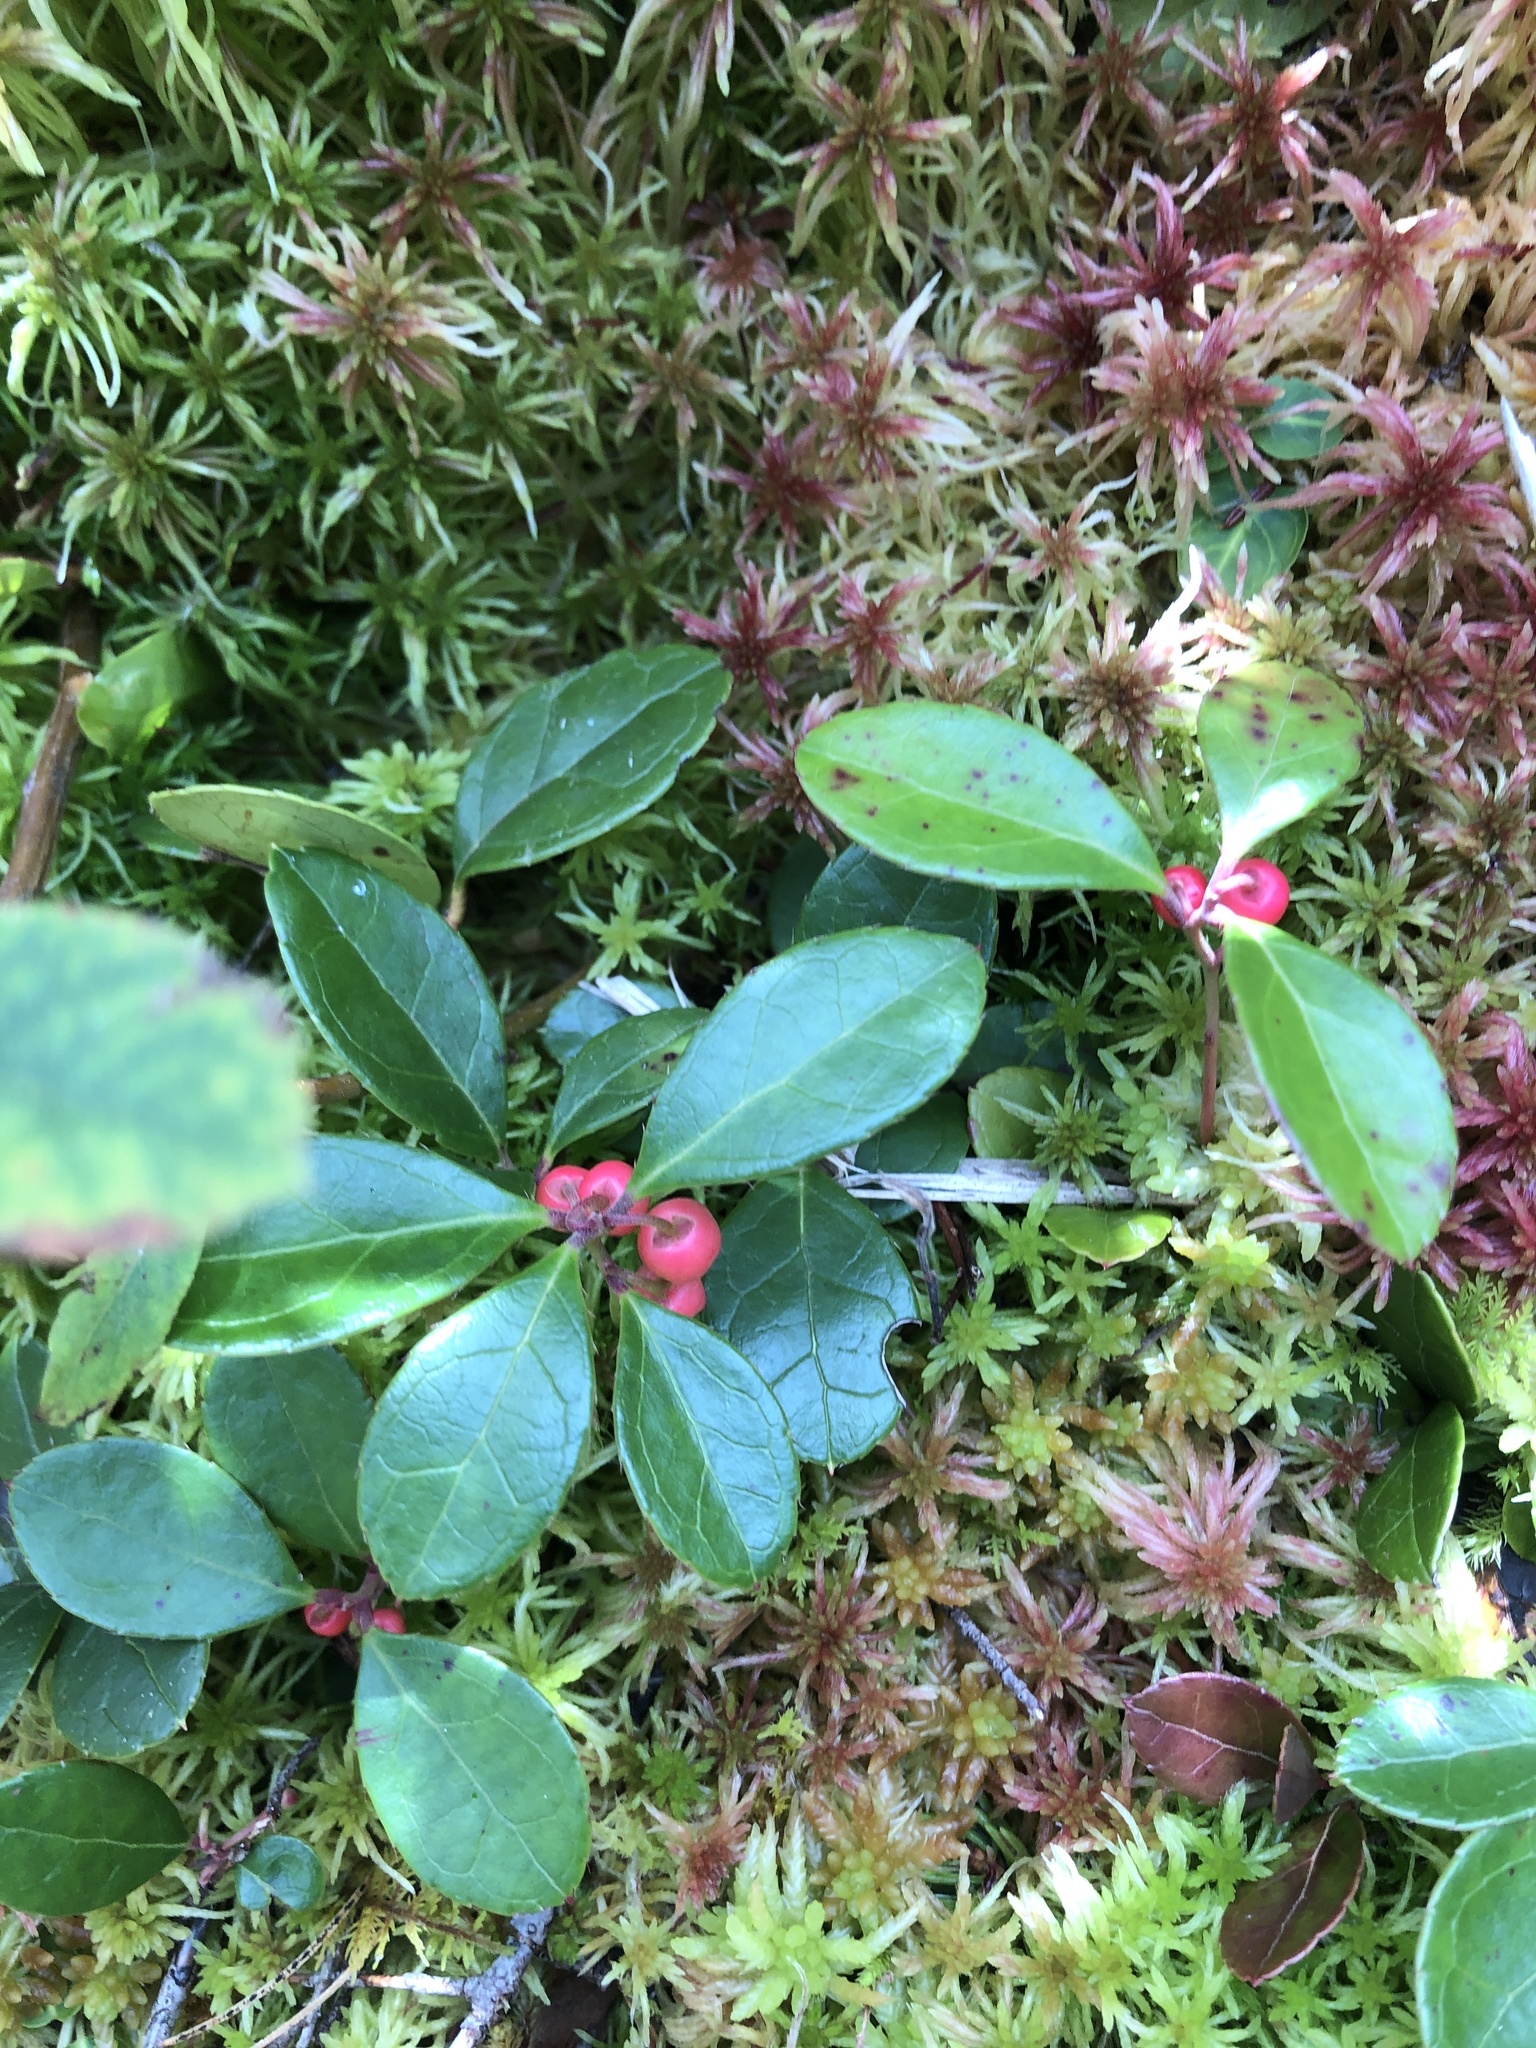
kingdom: Plantae
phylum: Tracheophyta
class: Magnoliopsida
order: Ericales
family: Ericaceae
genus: Gaultheria
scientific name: Gaultheria procumbens
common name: Checkerberry
